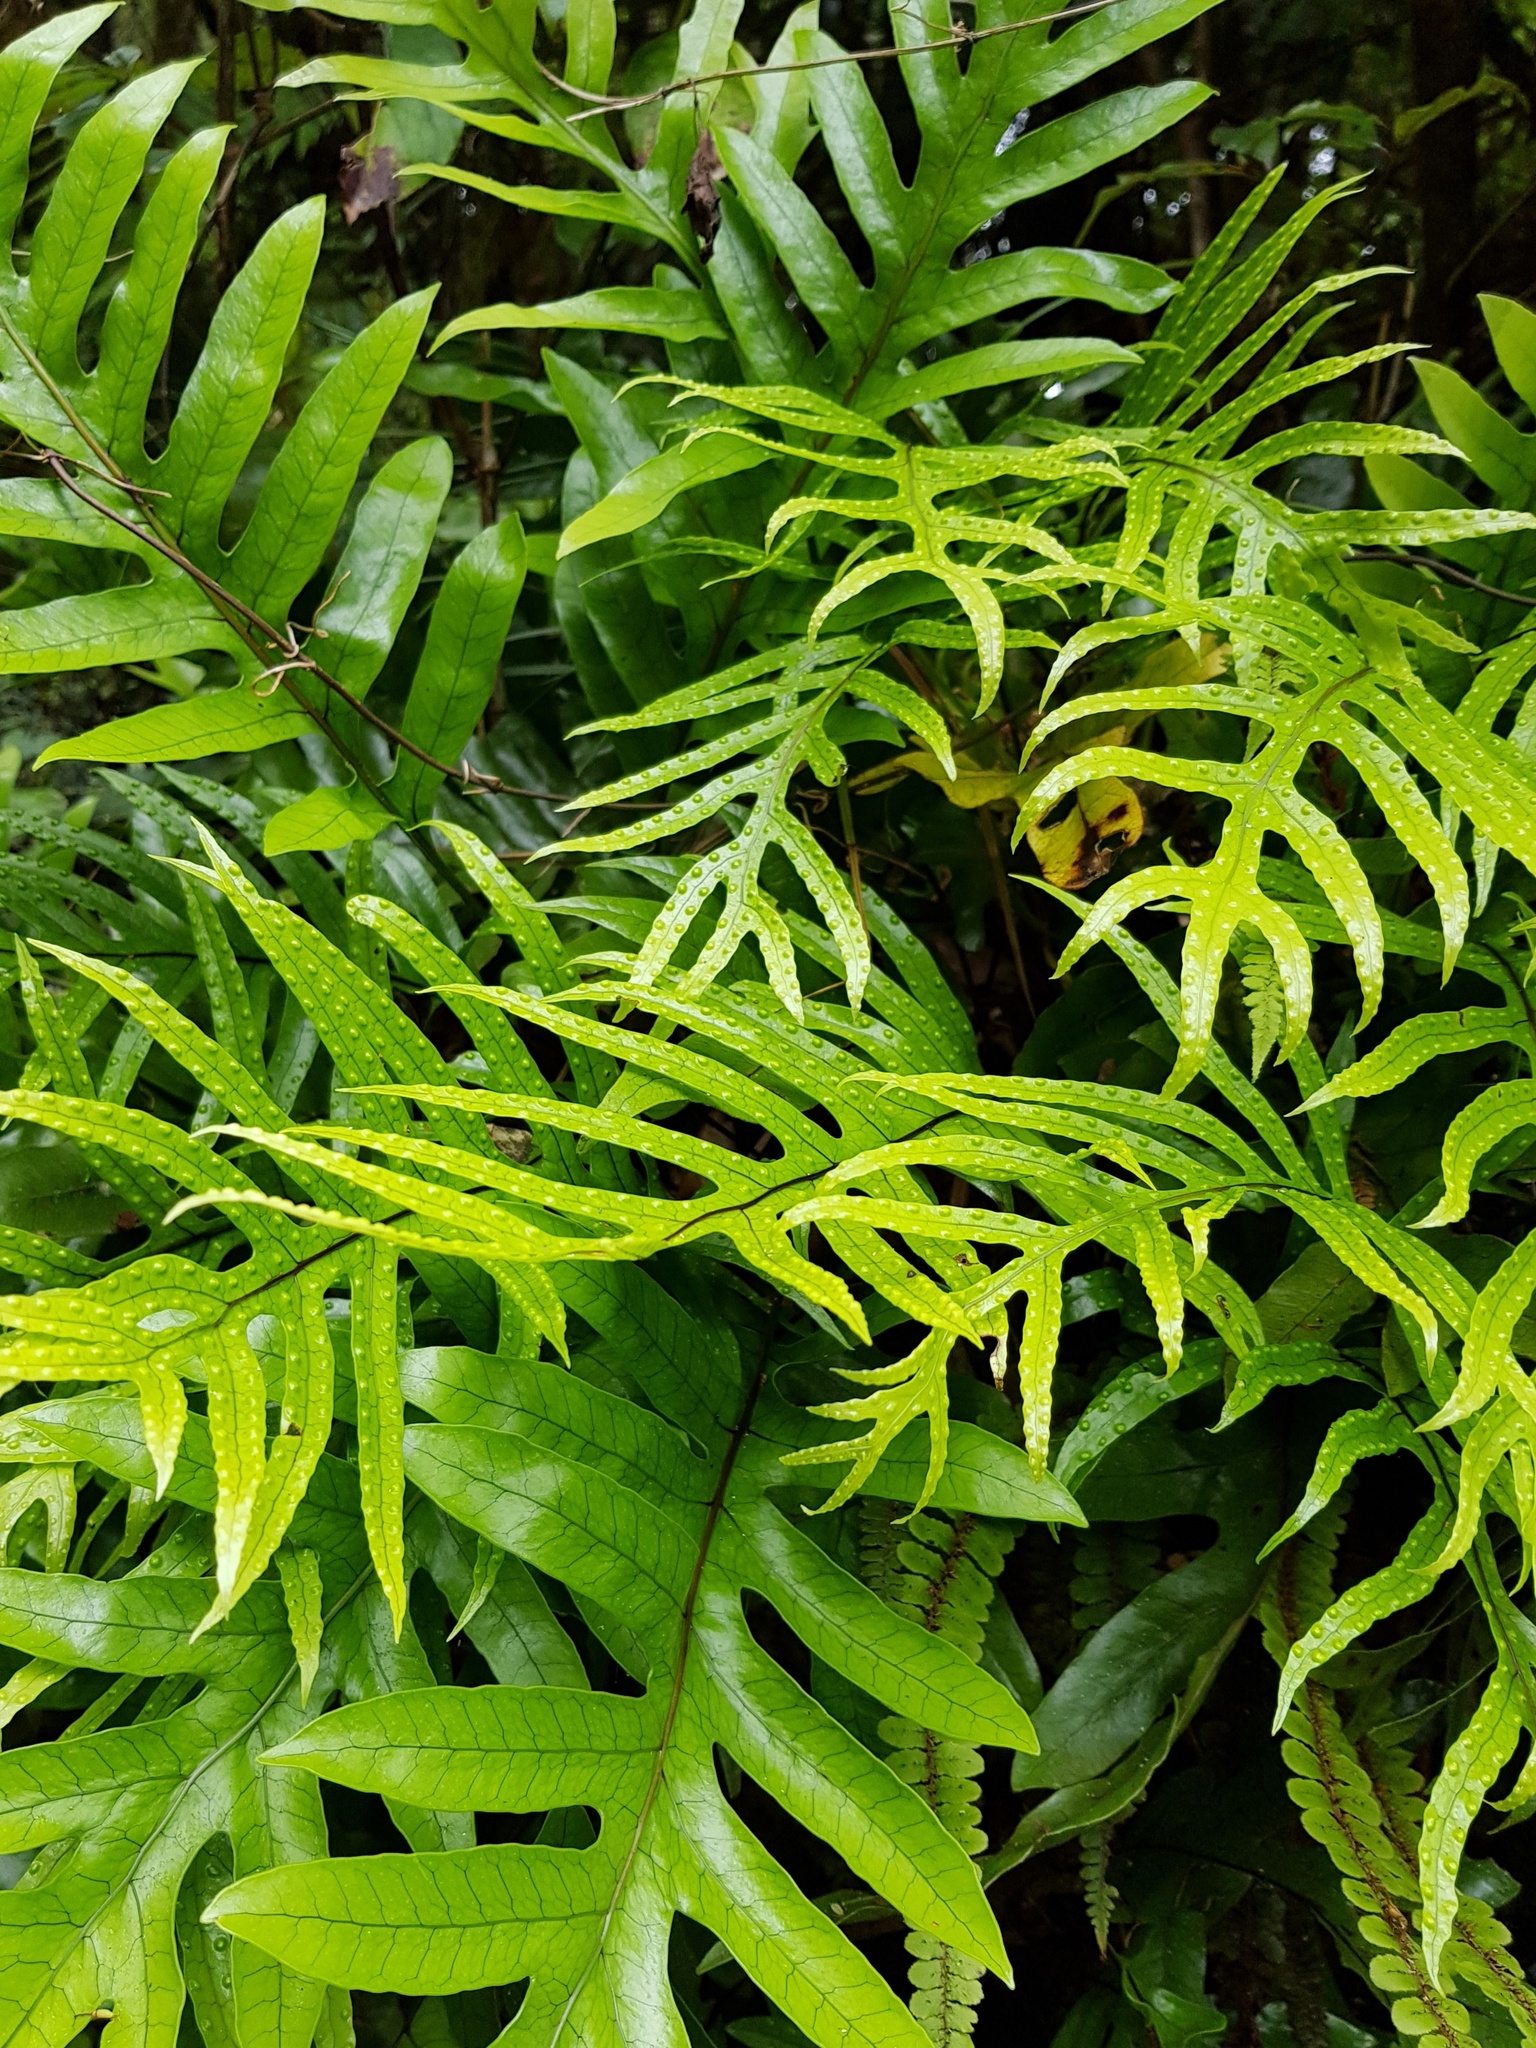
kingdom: Plantae
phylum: Tracheophyta
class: Polypodiopsida
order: Polypodiales
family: Polypodiaceae
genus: Lecanopteris
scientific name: Lecanopteris pustulata
